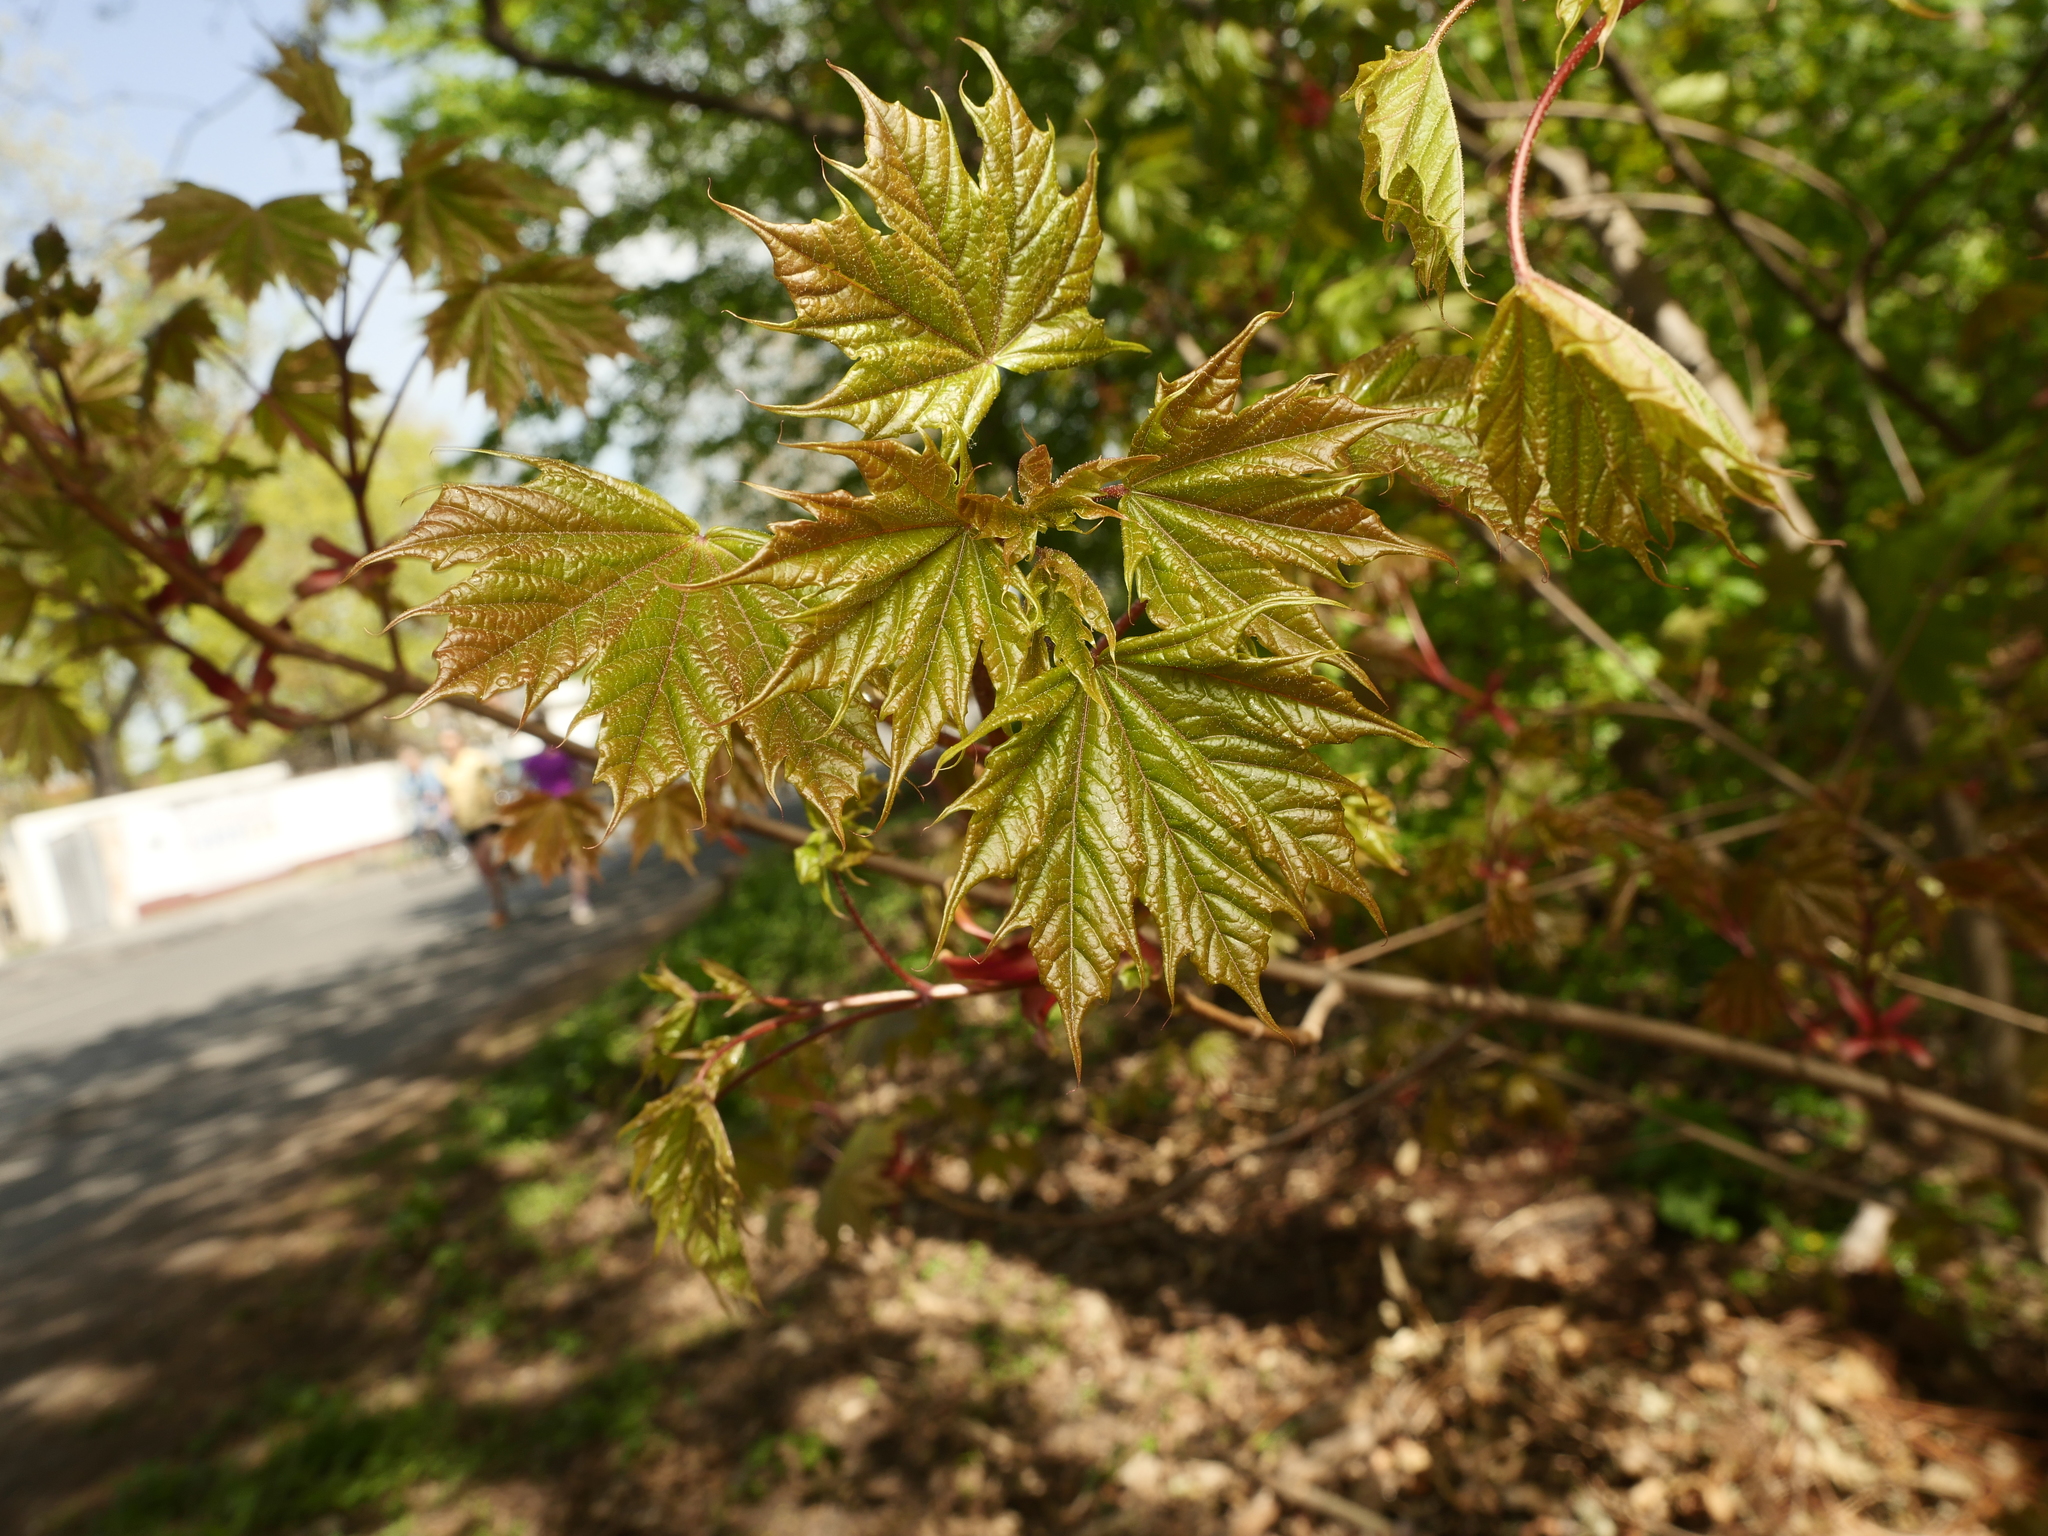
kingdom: Plantae
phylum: Tracheophyta
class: Magnoliopsida
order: Sapindales
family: Sapindaceae
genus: Acer
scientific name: Acer platanoides
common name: Norway maple
